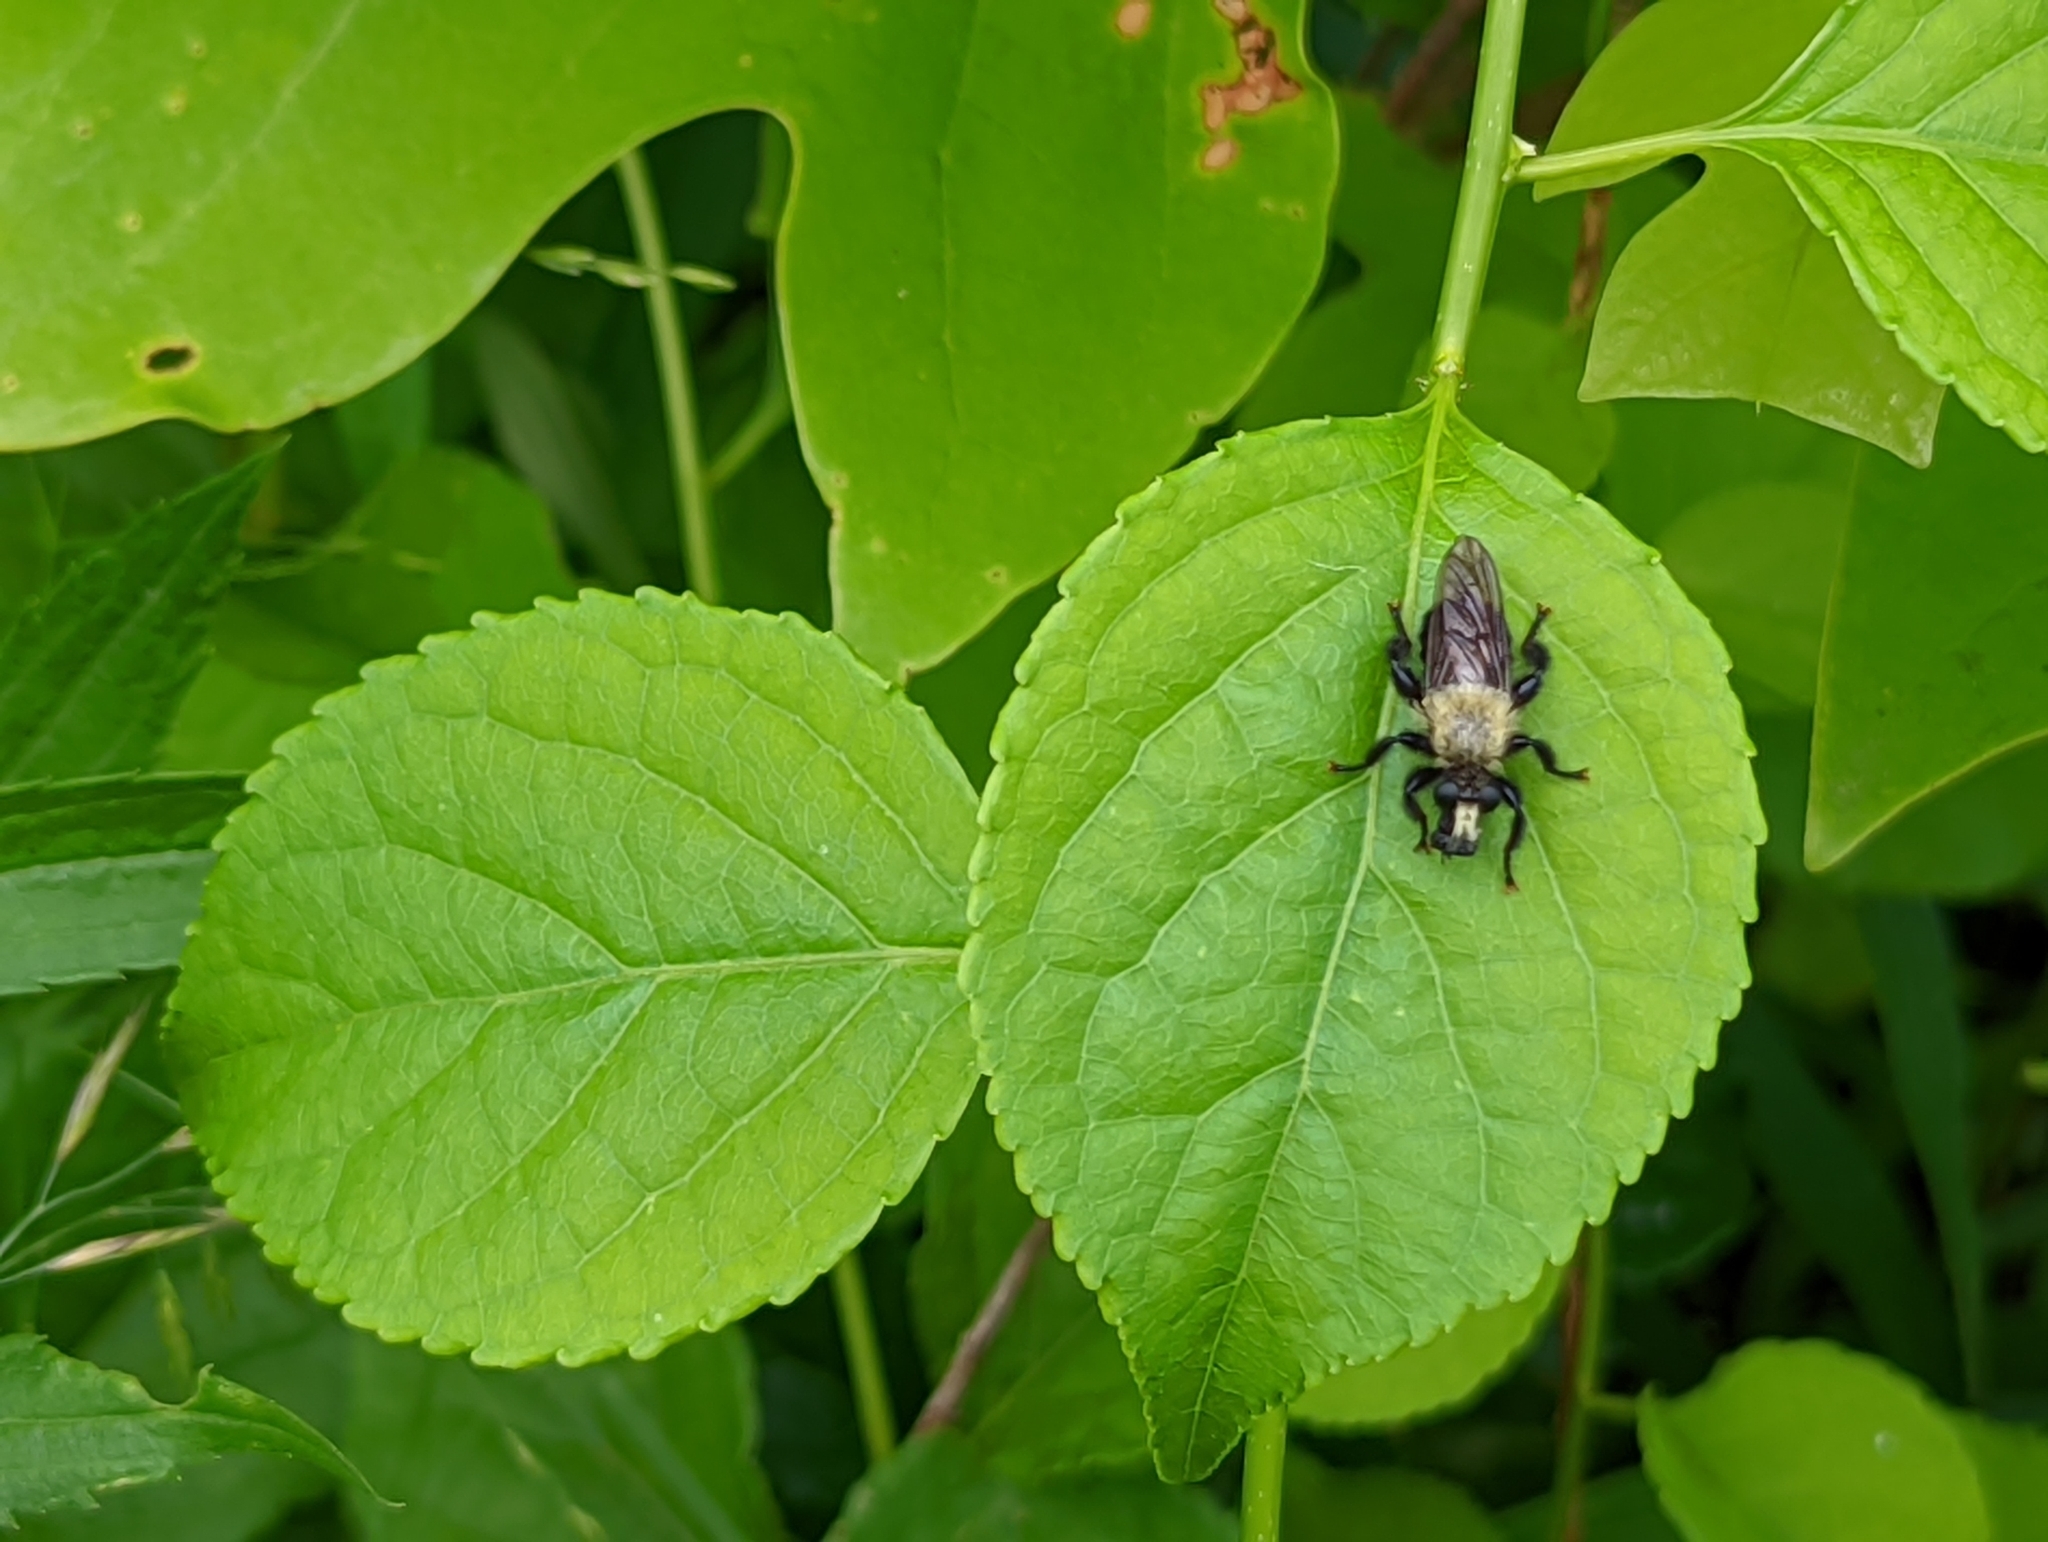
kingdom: Animalia
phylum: Arthropoda
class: Insecta
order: Diptera
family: Asilidae
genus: Laphria
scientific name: Laphria flavicollis
